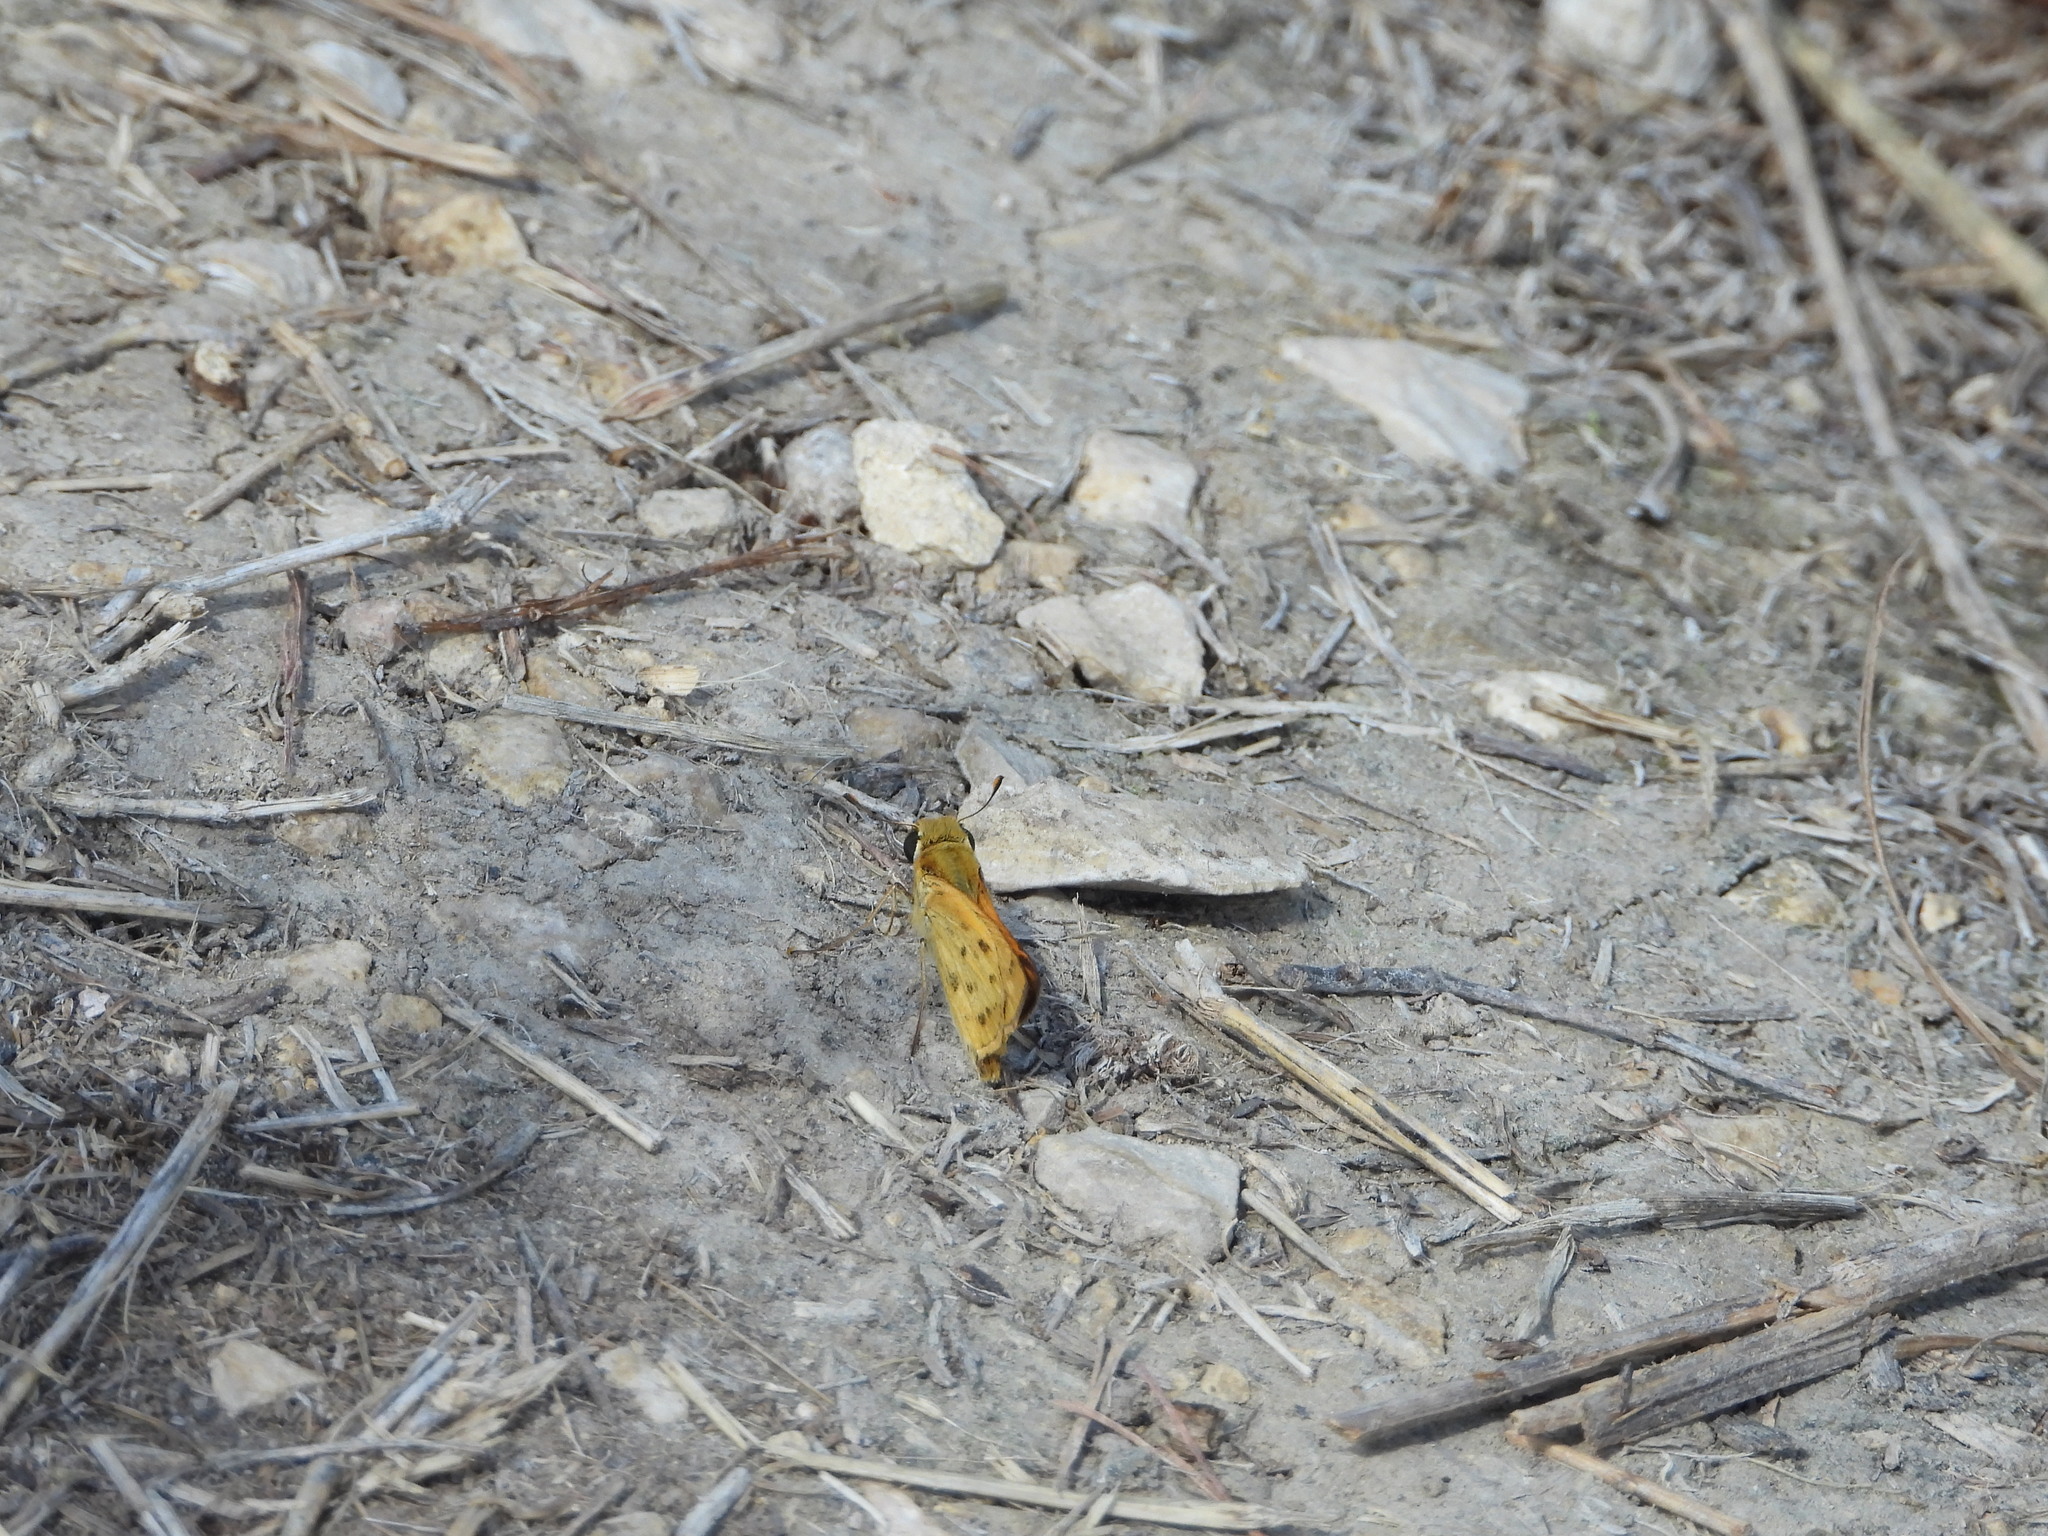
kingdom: Animalia
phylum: Arthropoda
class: Insecta
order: Lepidoptera
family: Hesperiidae
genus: Hylephila
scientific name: Hylephila phyleus
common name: Fiery skipper
